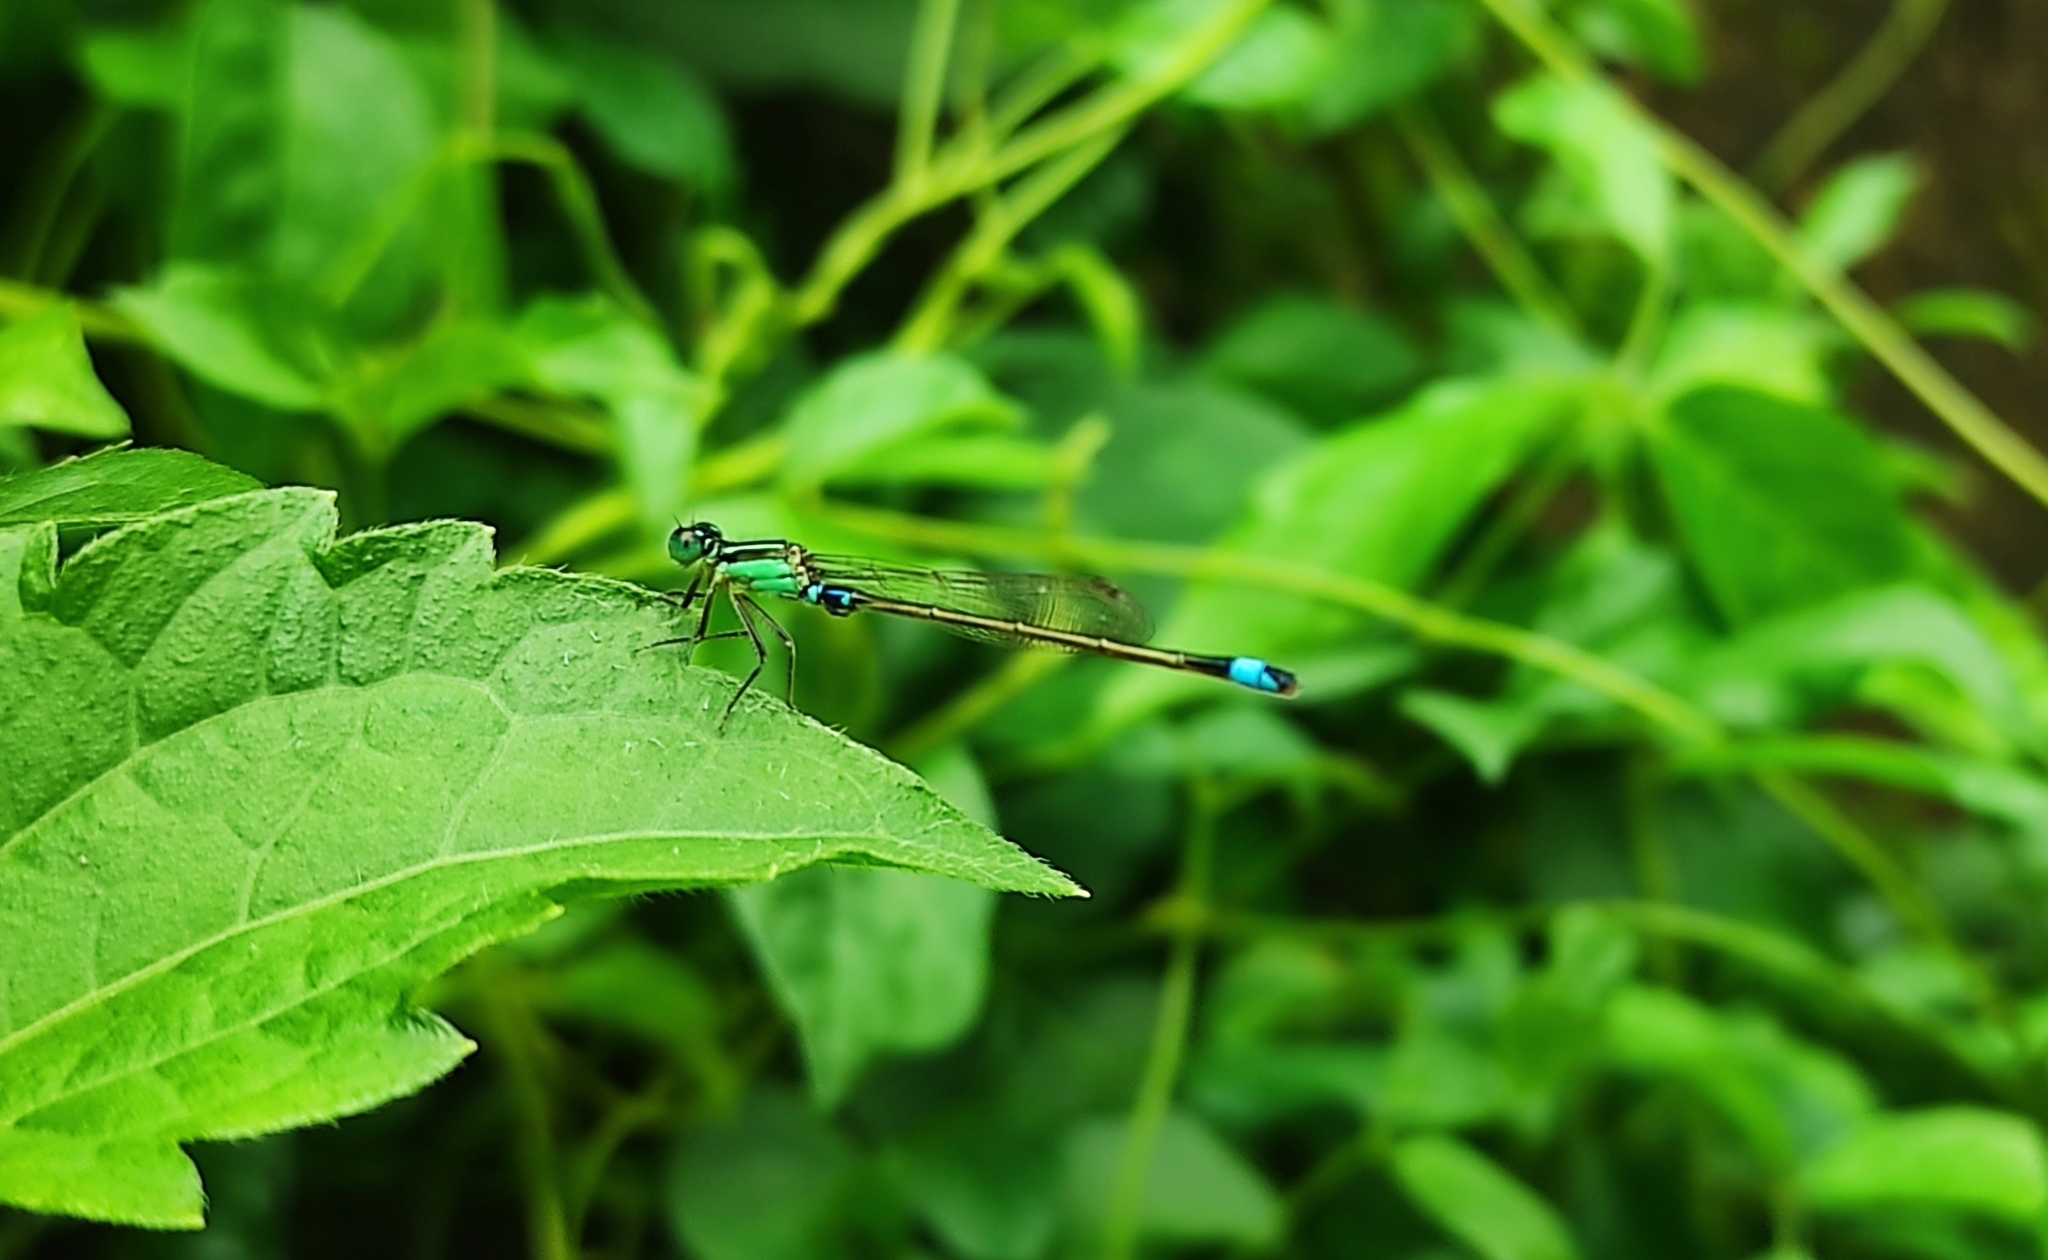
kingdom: Animalia
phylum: Arthropoda
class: Insecta
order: Odonata
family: Coenagrionidae
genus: Ischnura
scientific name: Ischnura senegalensis
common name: Tropical bluetail
